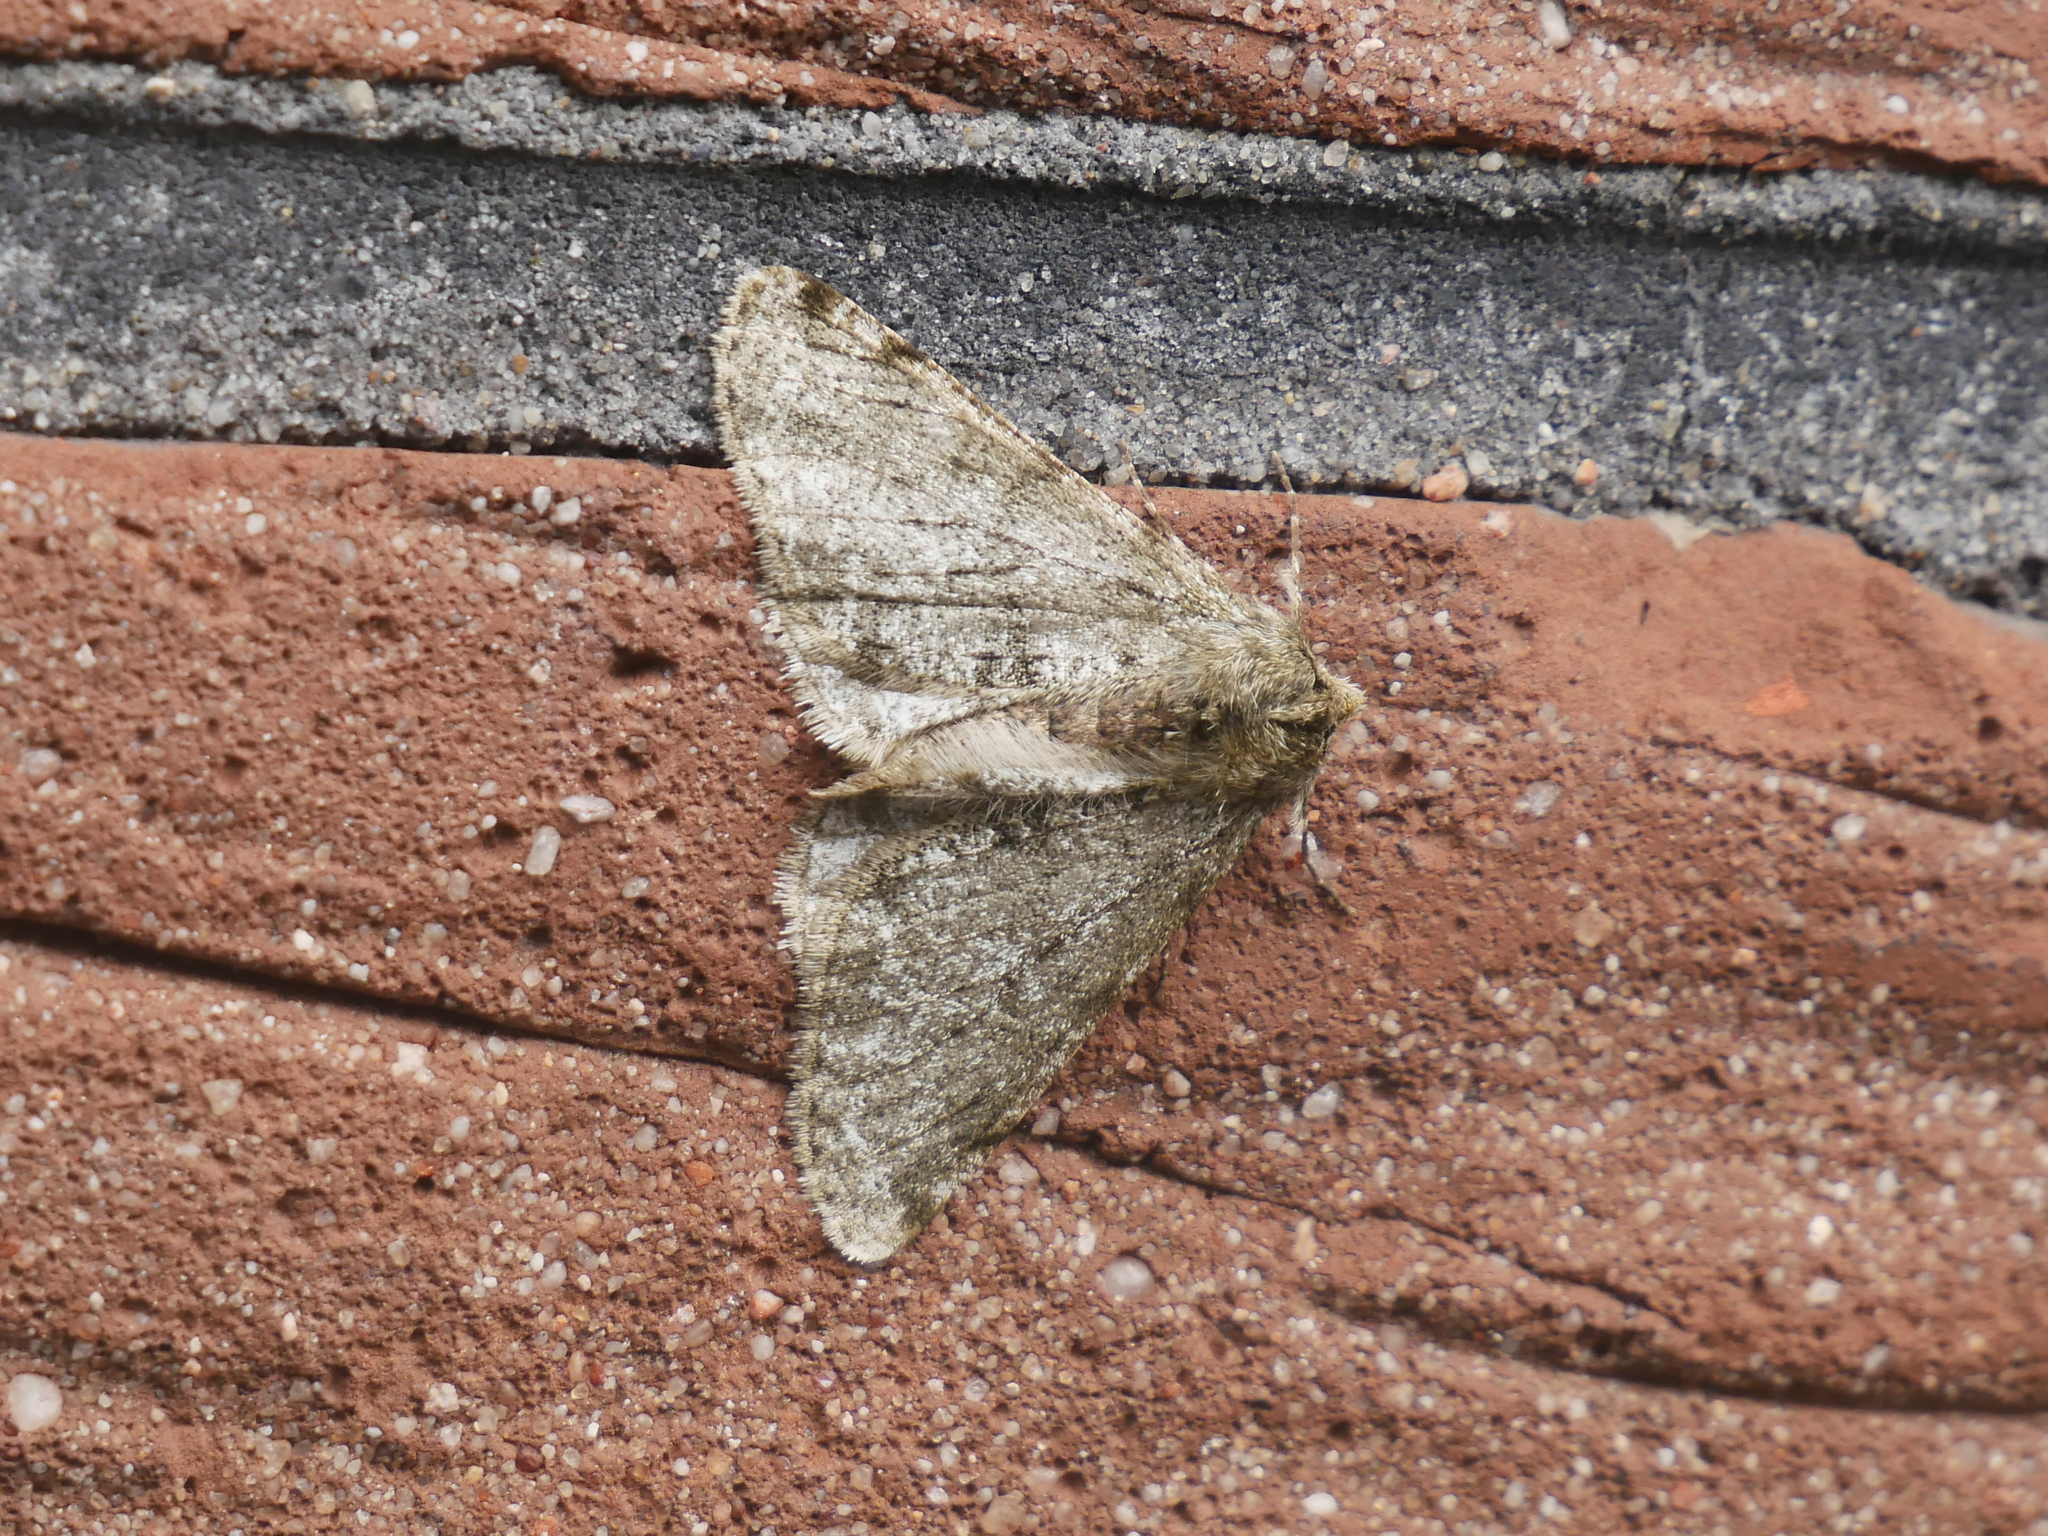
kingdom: Animalia
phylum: Arthropoda
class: Insecta
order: Lepidoptera
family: Geometridae
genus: Phigalia
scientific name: Phigalia pilosaria
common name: Pale brindled beauty
